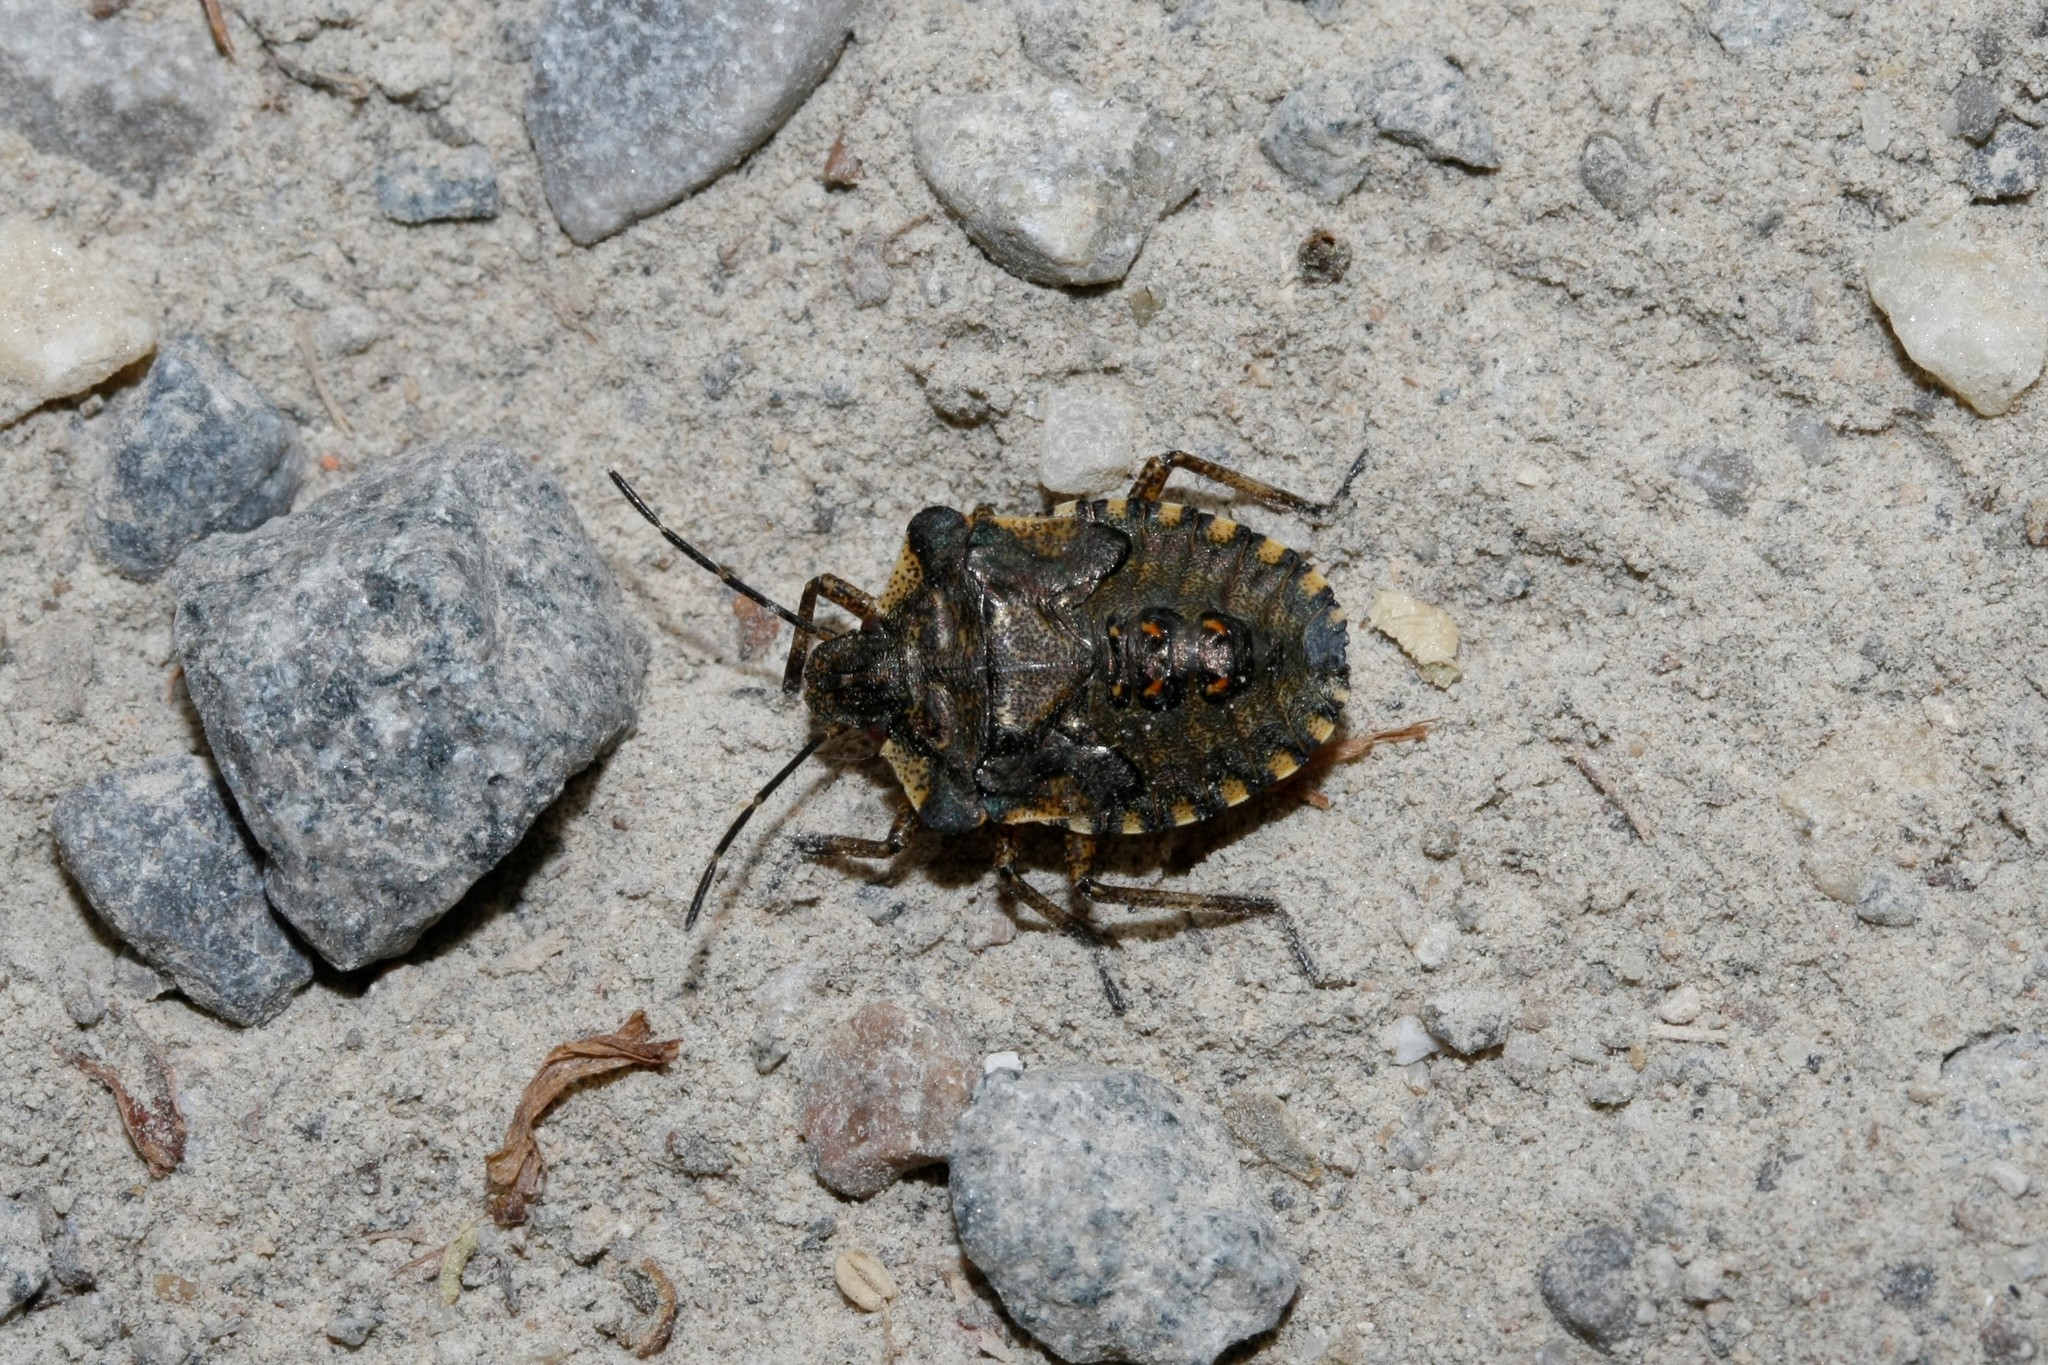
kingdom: Animalia
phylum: Arthropoda
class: Insecta
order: Hemiptera
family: Pentatomidae
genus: Pentatoma
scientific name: Pentatoma rufipes
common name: Forest bug
